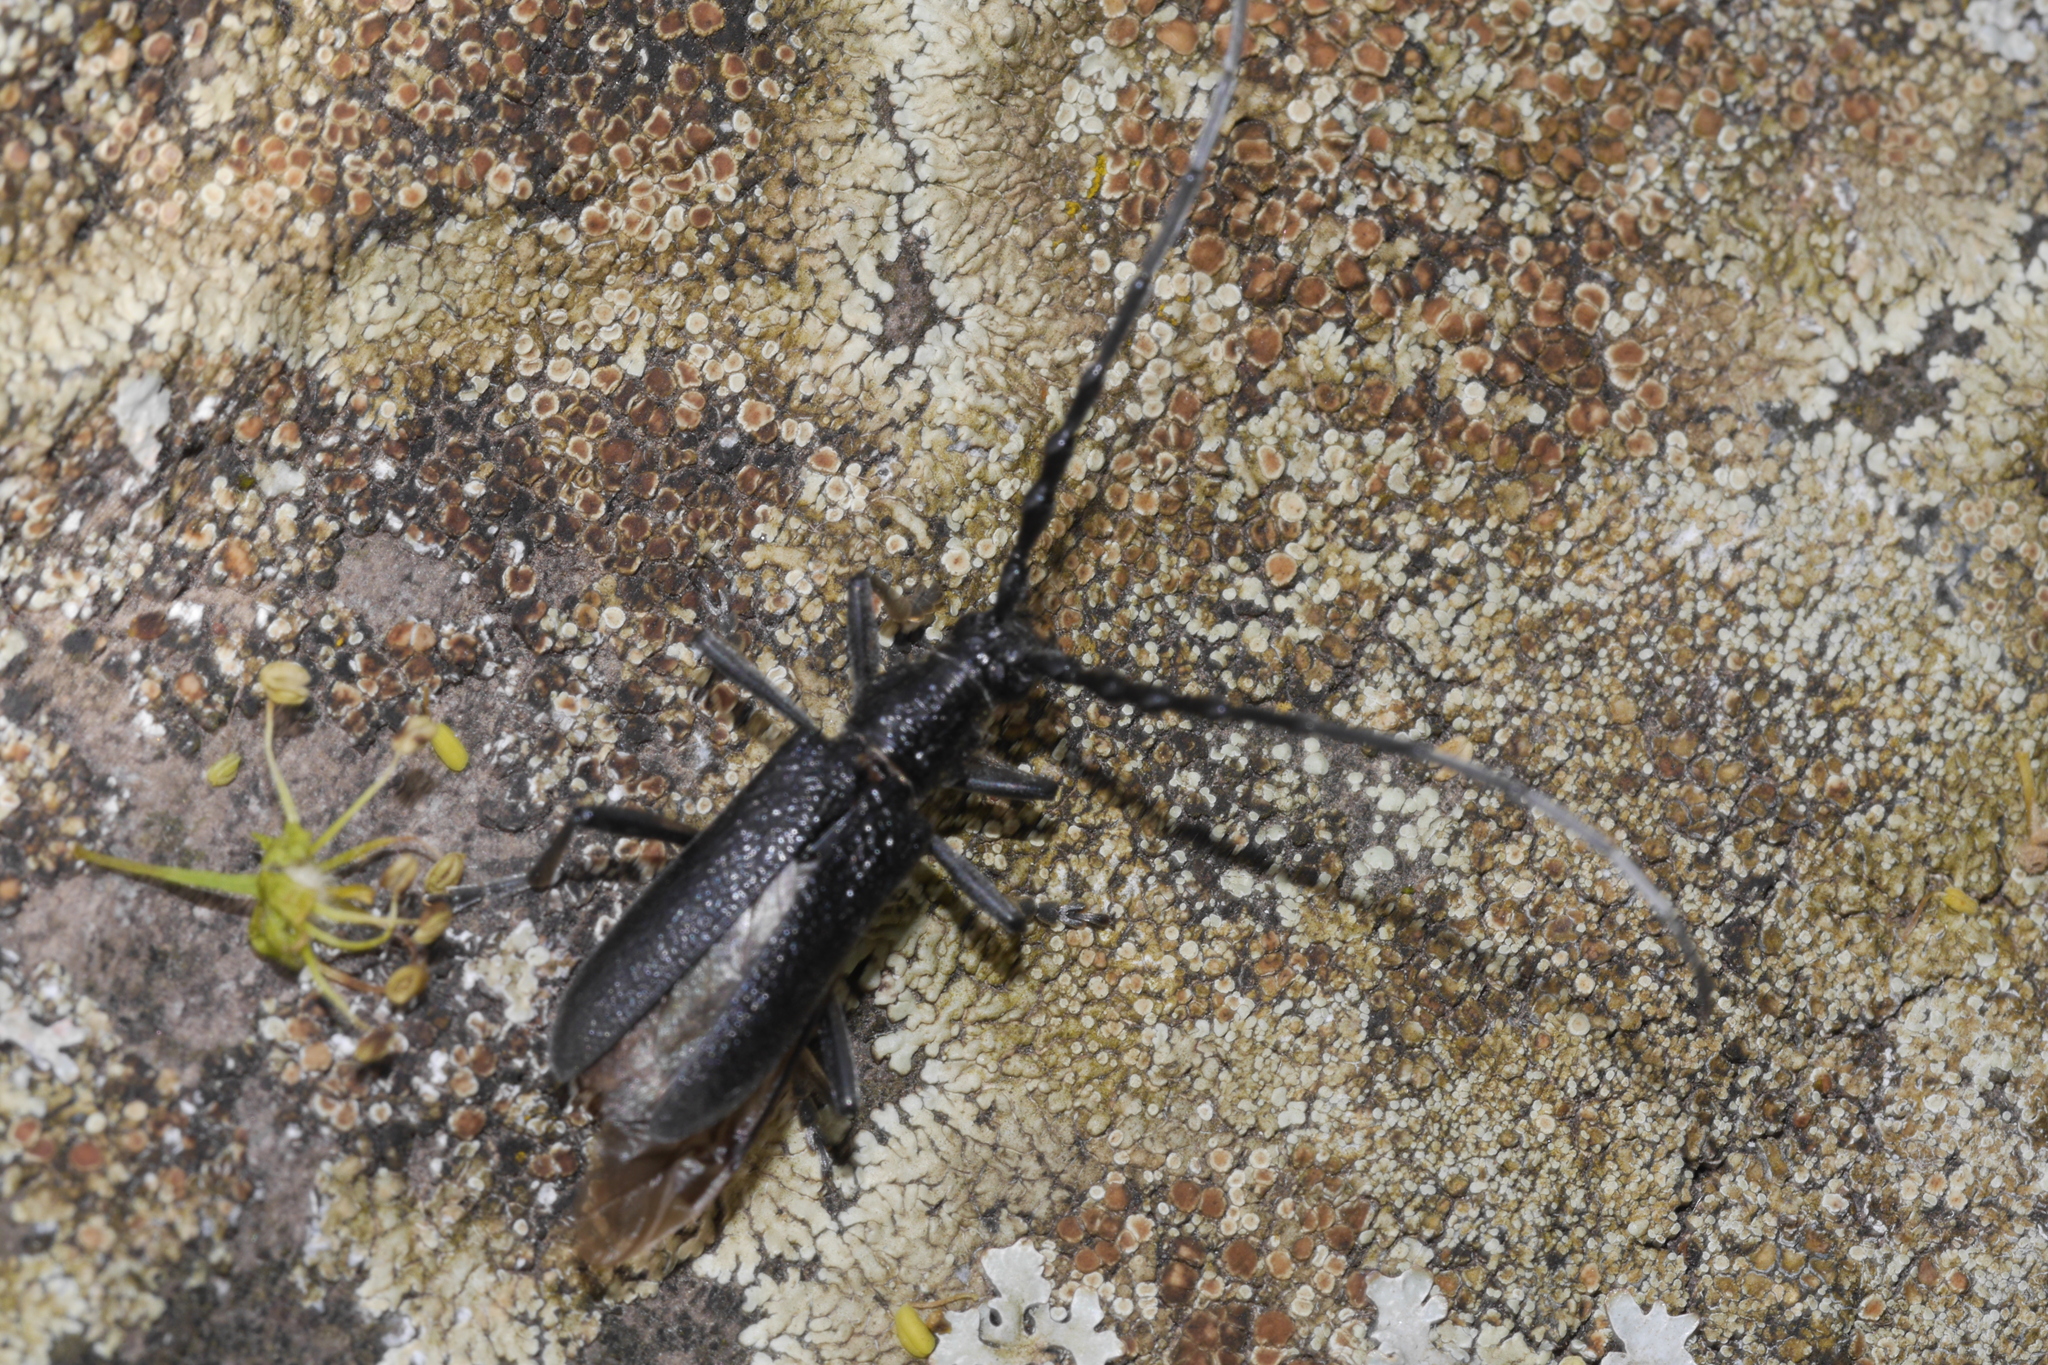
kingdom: Animalia
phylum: Arthropoda
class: Insecta
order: Coleoptera
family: Cerambycidae
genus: Cerambyx
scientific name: Cerambyx scopolii
